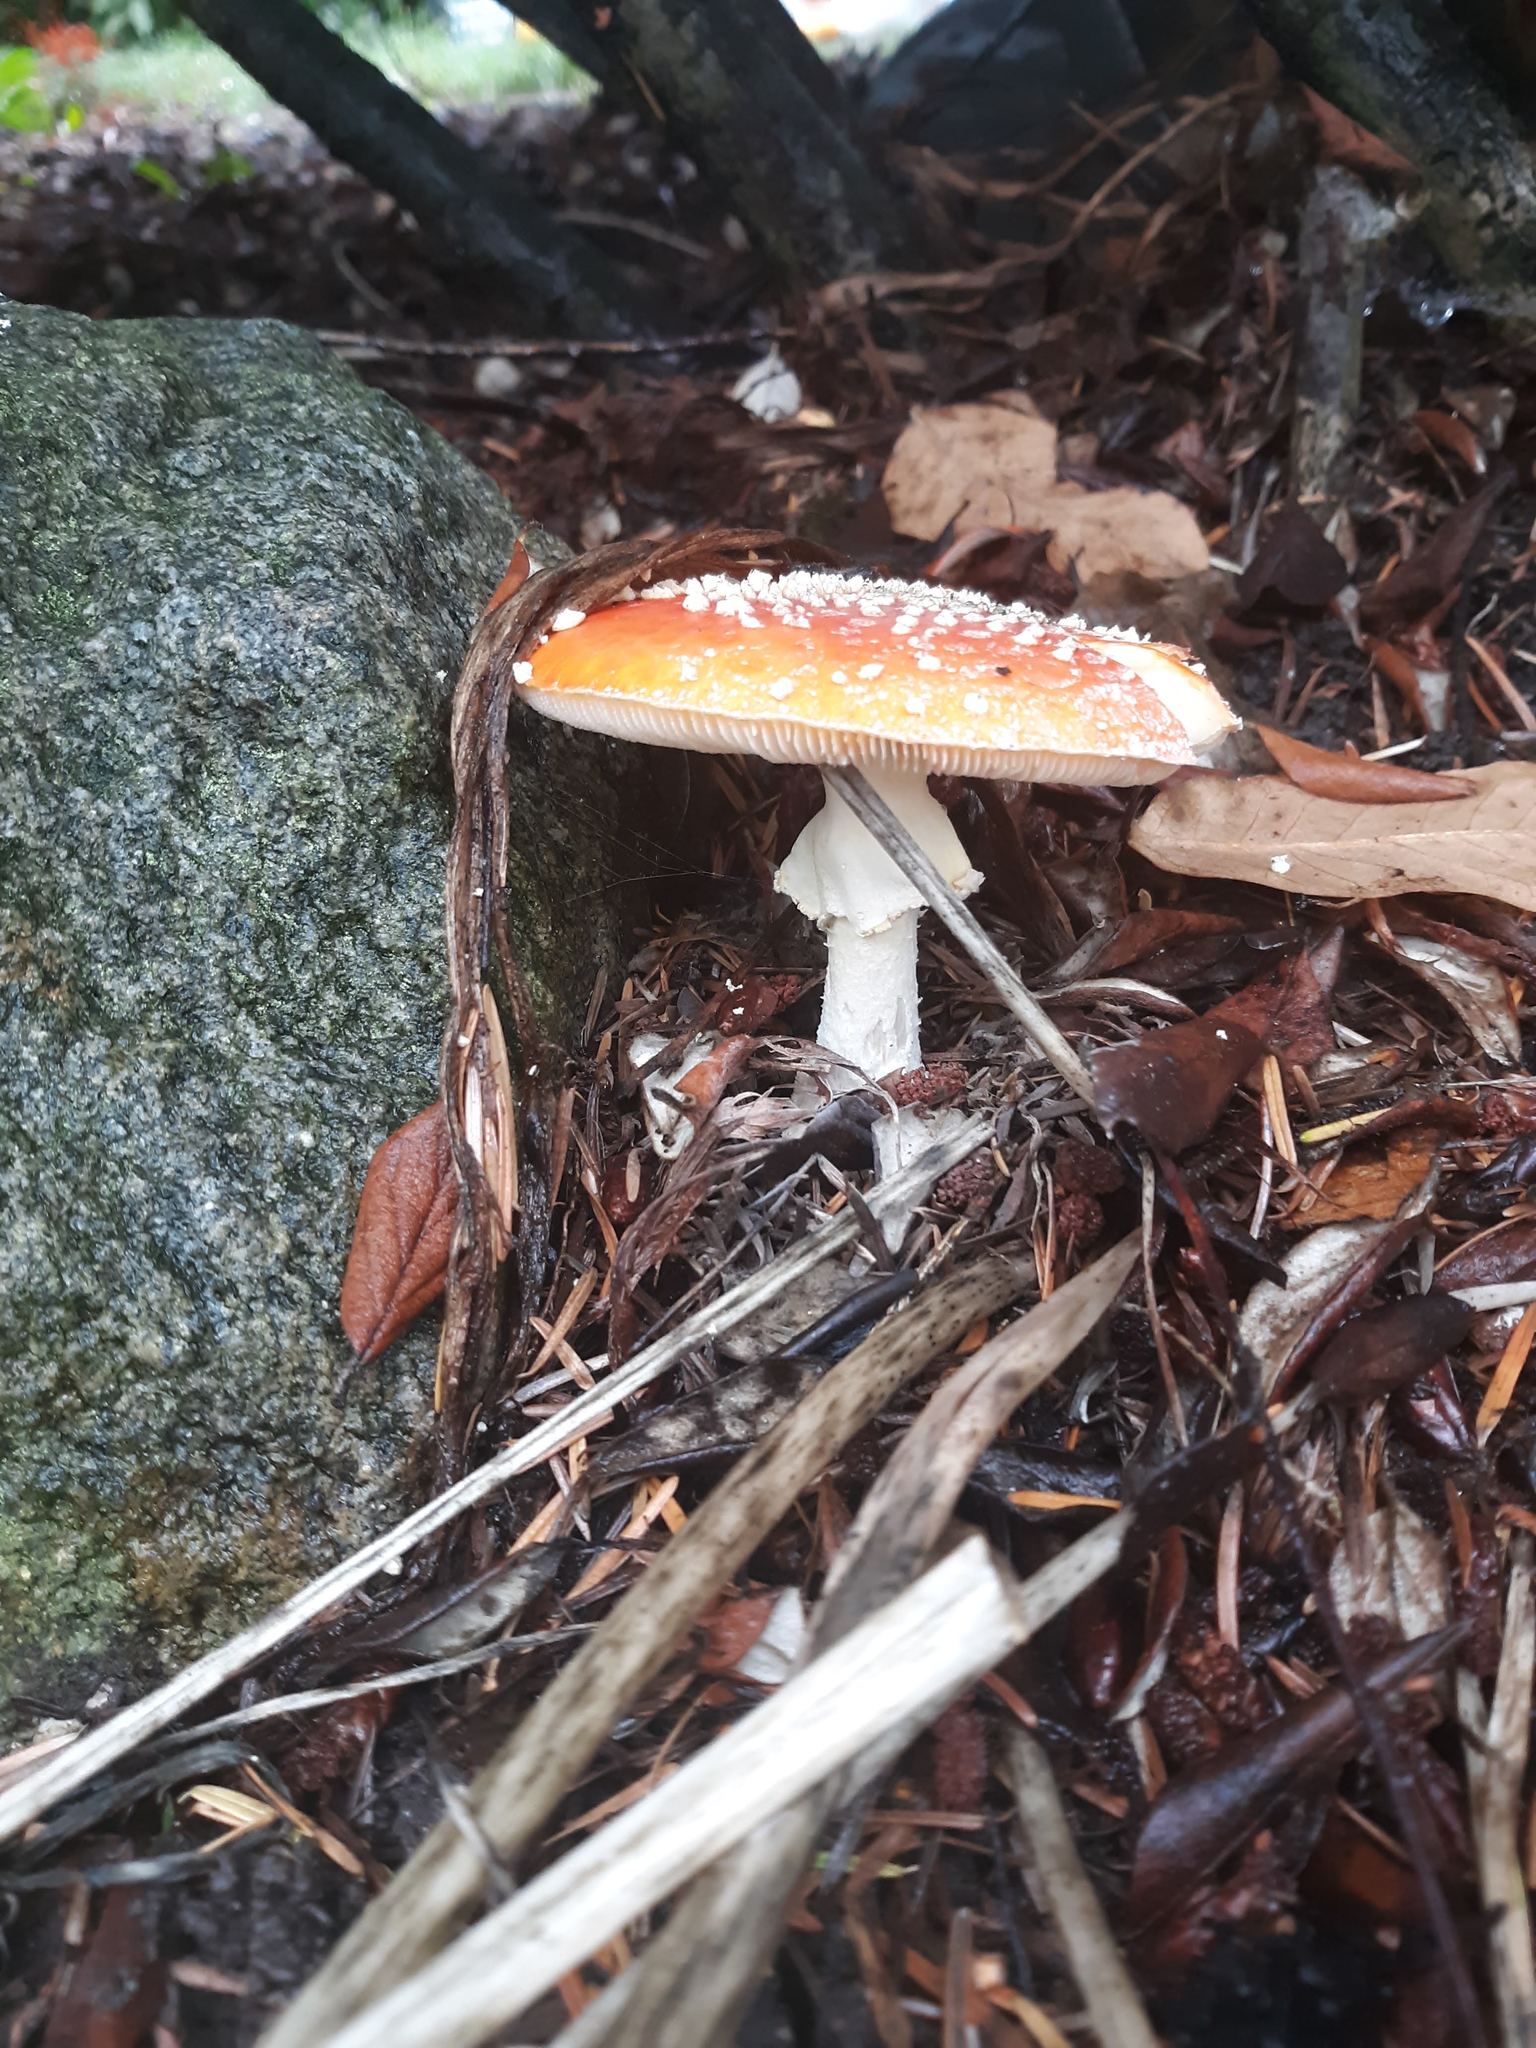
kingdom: Fungi
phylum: Basidiomycota
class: Agaricomycetes
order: Agaricales
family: Amanitaceae
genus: Amanita
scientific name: Amanita muscaria
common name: Fly agaric
